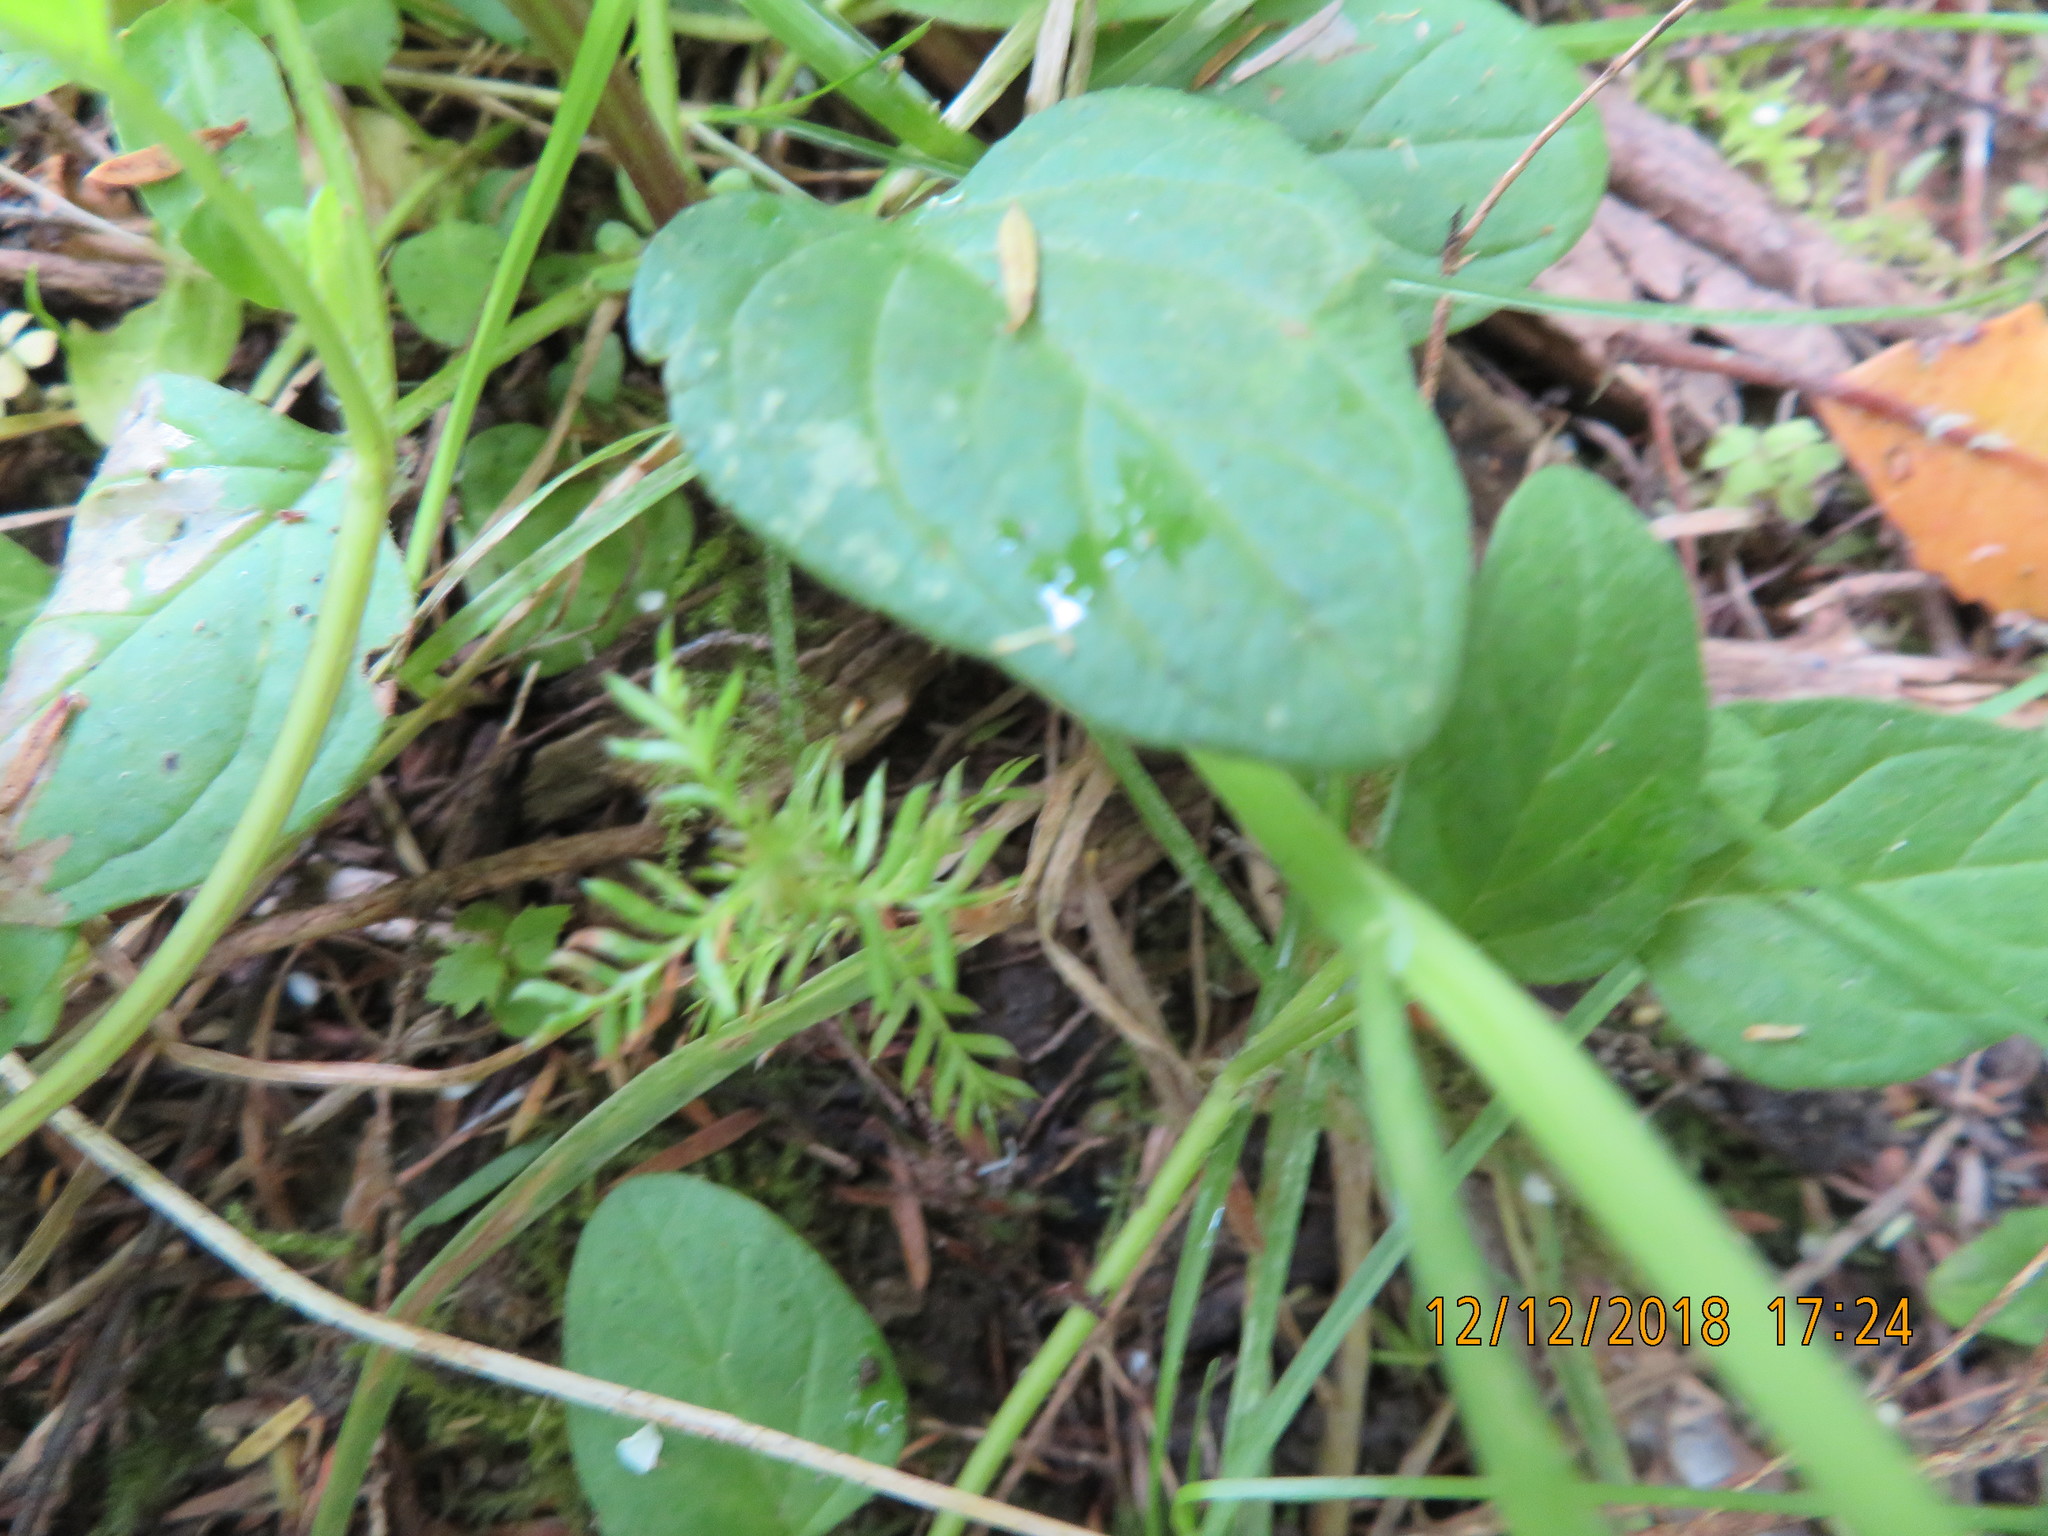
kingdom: Plantae
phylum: Tracheophyta
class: Pinopsida
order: Pinales
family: Podocarpaceae
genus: Dacrycarpus
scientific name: Dacrycarpus dacrydioides
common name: White pine
